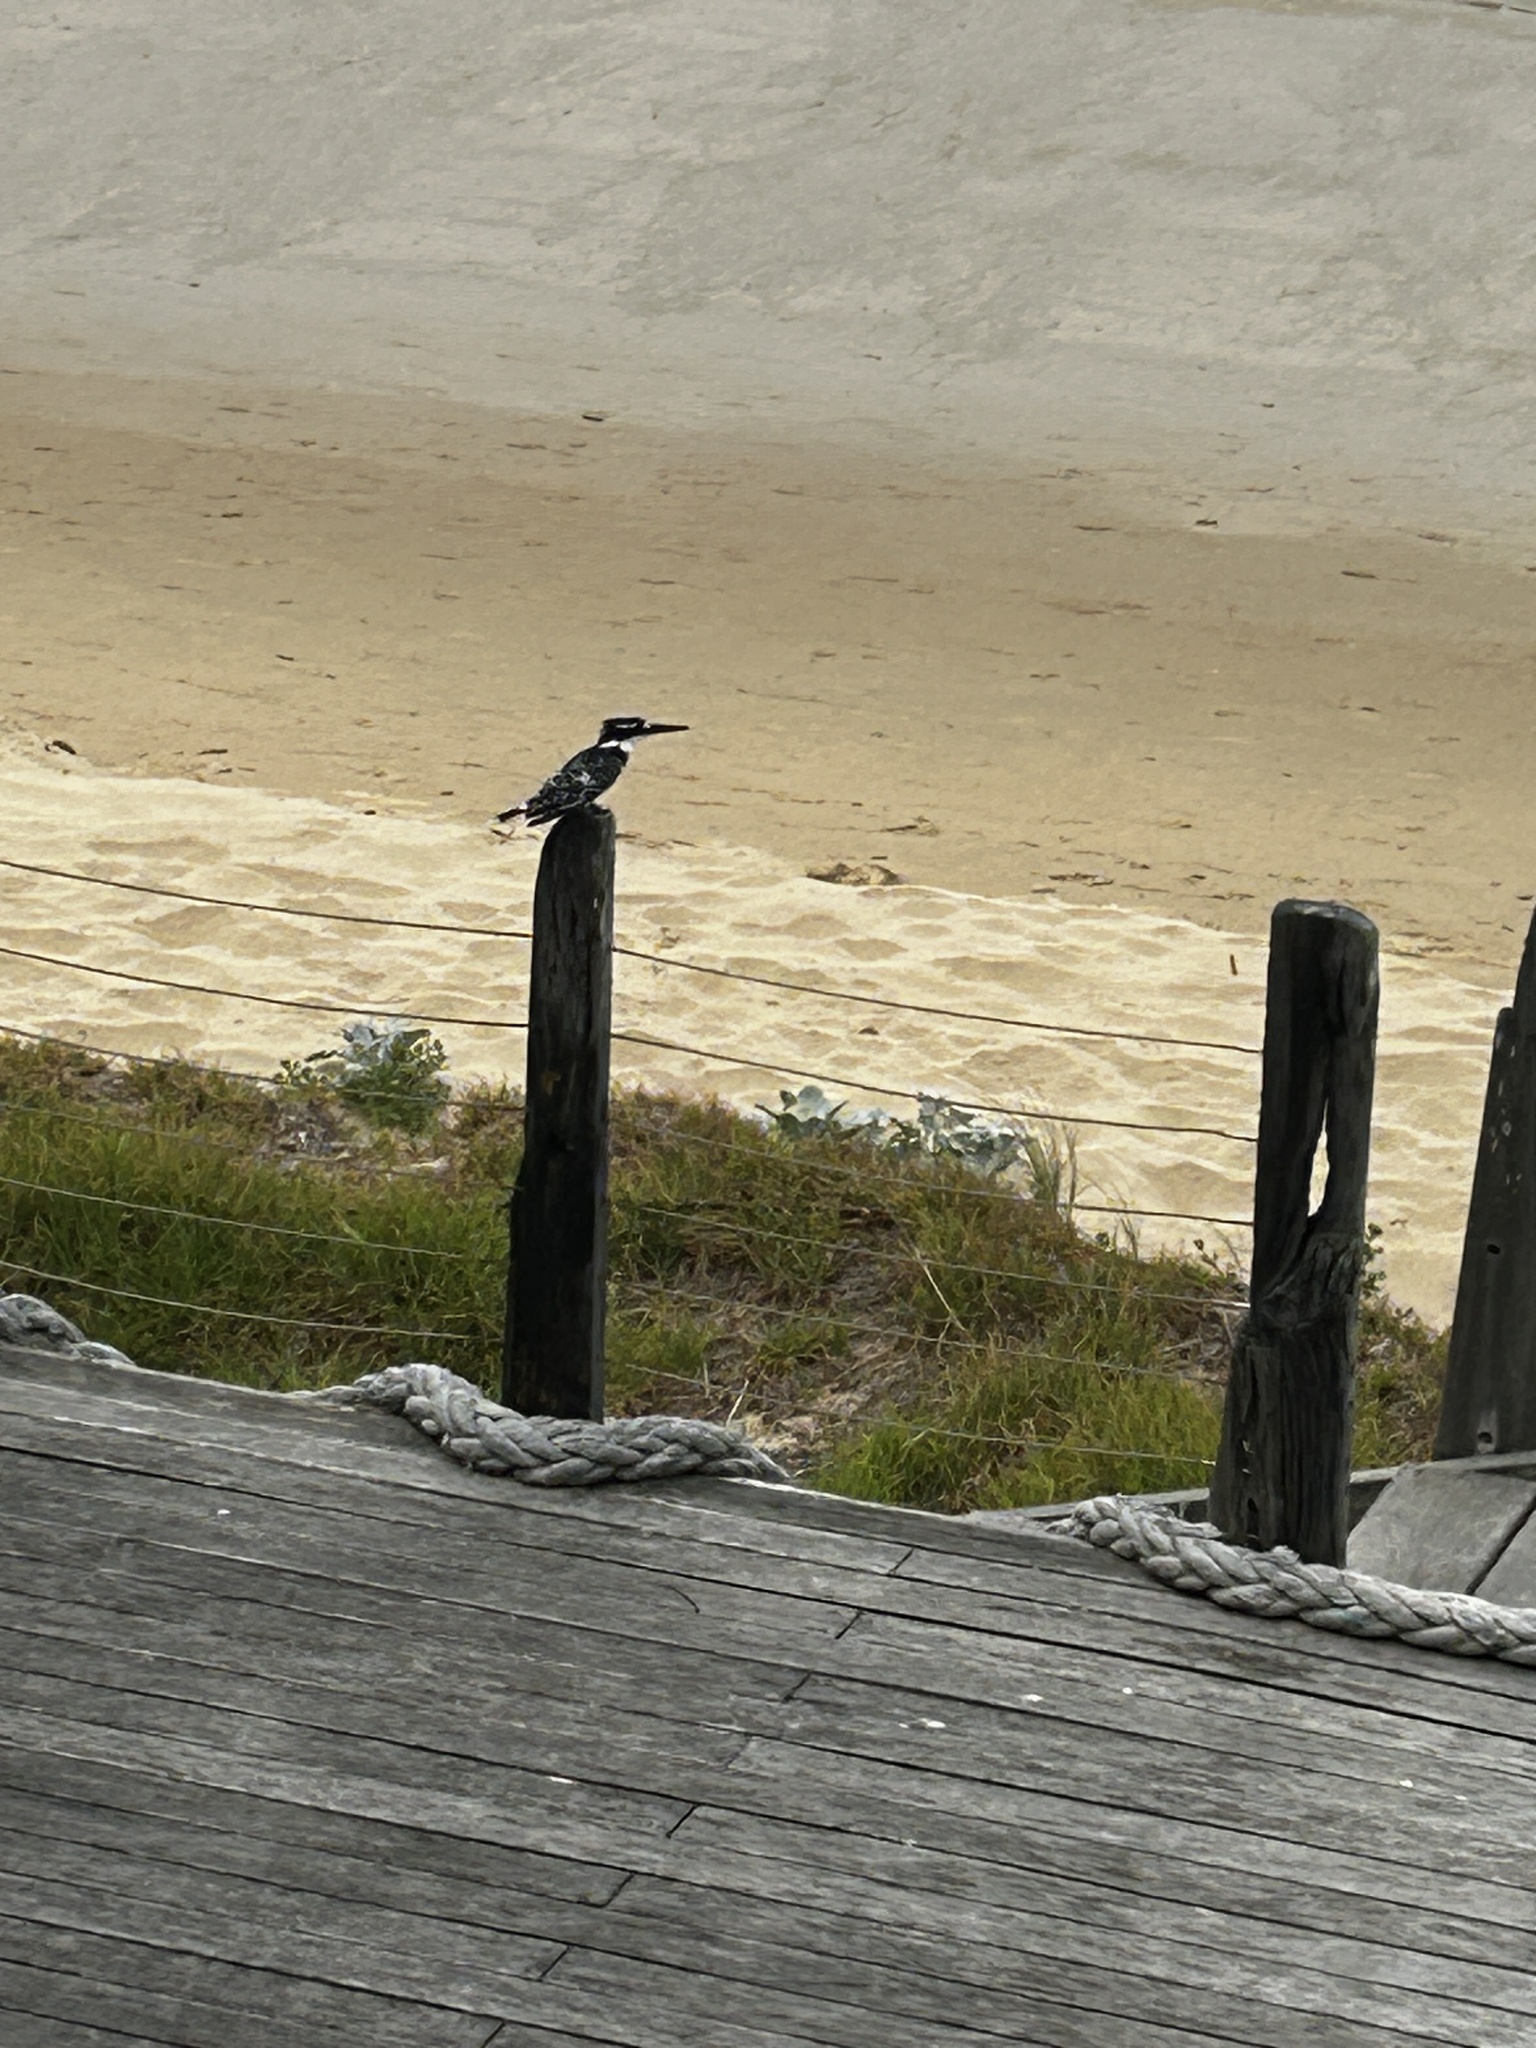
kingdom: Animalia
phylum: Chordata
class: Aves
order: Coraciiformes
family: Alcedinidae
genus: Ceryle
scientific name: Ceryle rudis
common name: Pied kingfisher
